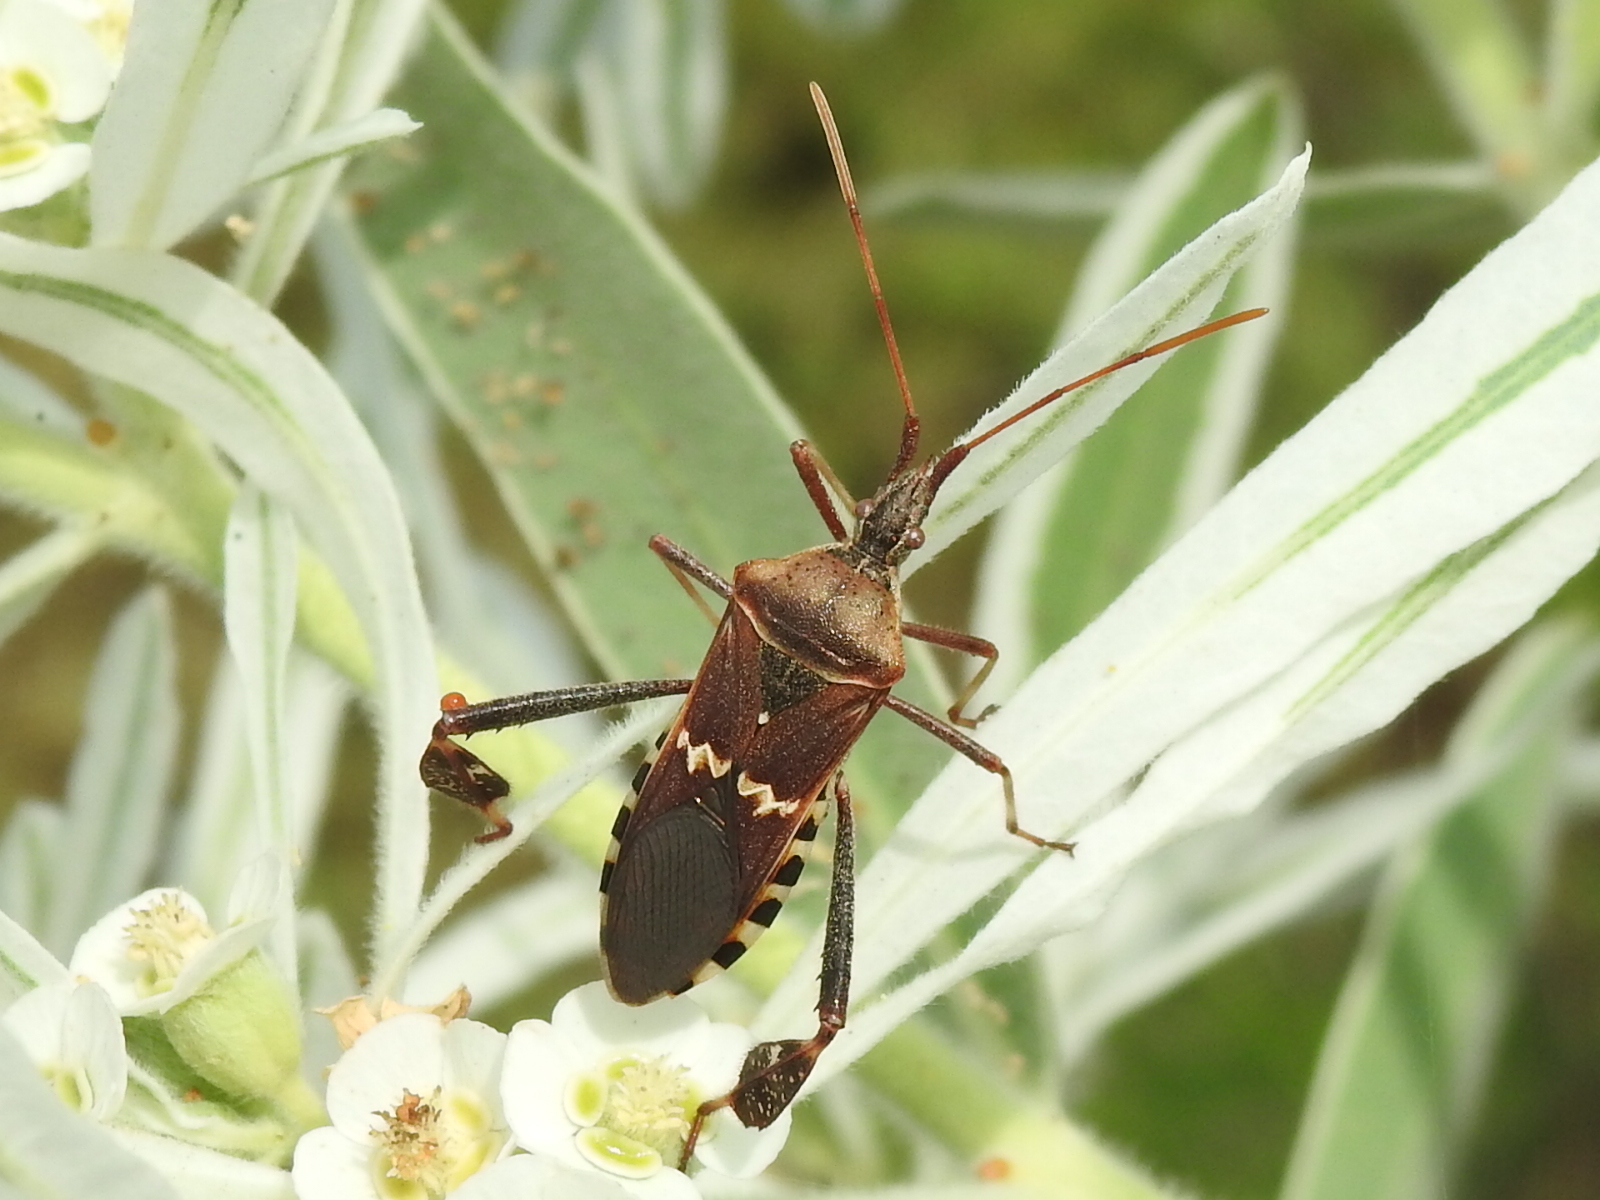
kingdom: Animalia
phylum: Arthropoda
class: Insecta
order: Hemiptera
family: Coreidae
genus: Leptoglossus
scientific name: Leptoglossus clypealis
